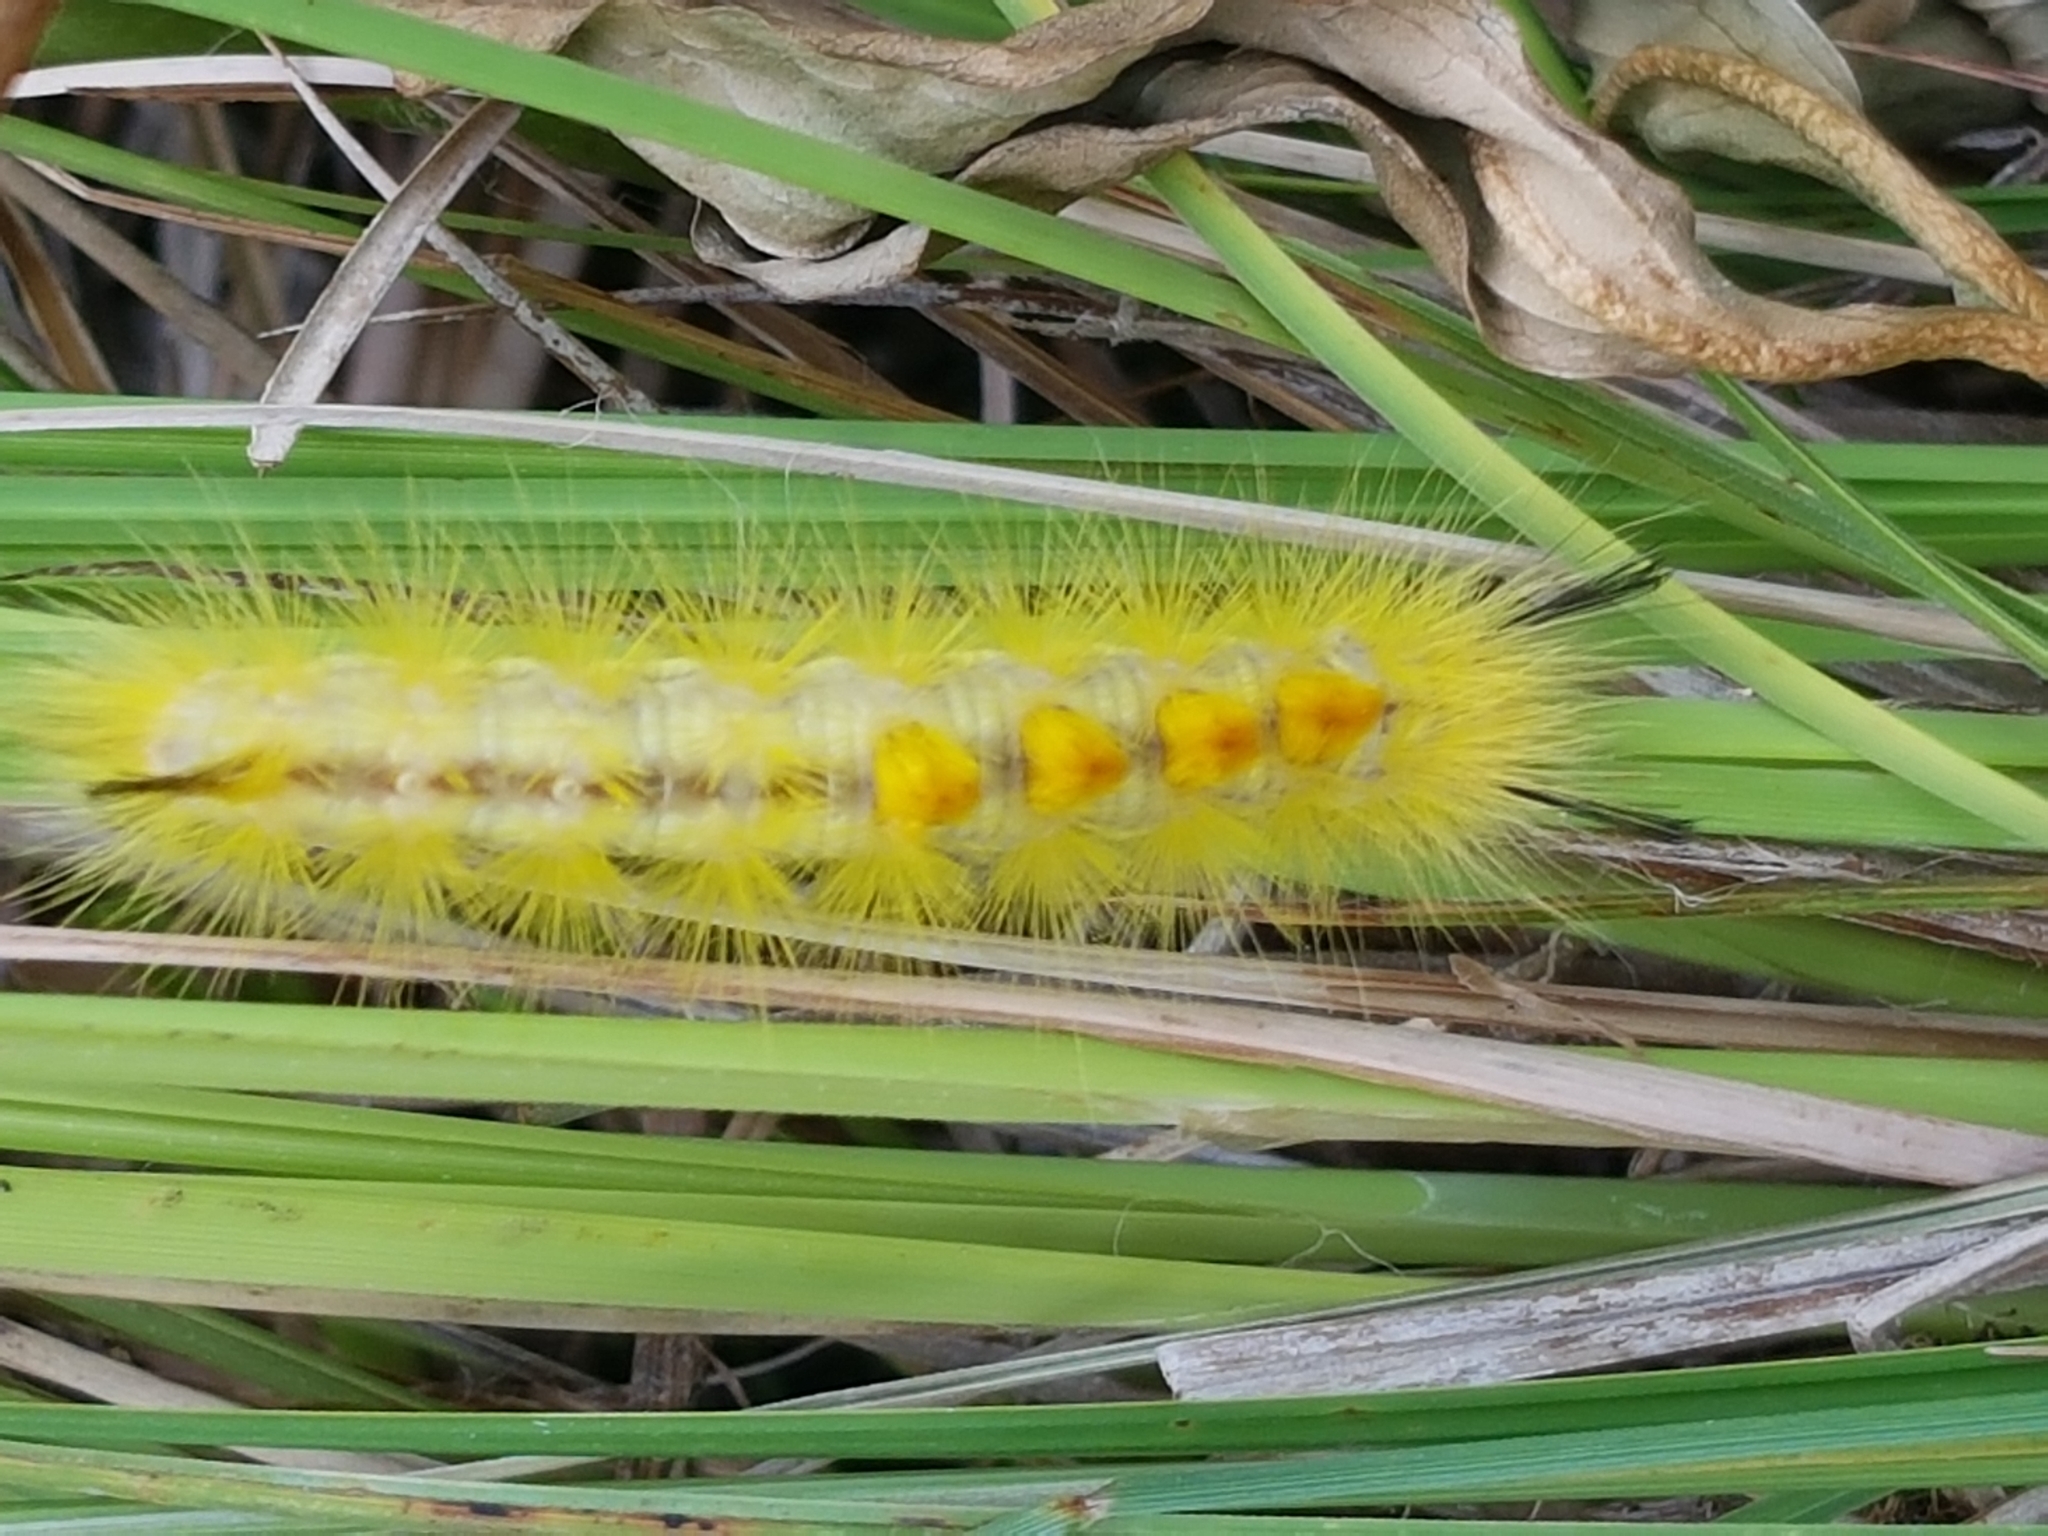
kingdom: Animalia
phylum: Arthropoda
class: Insecta
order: Lepidoptera
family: Erebidae
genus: Laelia
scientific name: Laelia coenosa
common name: Reed tussock
